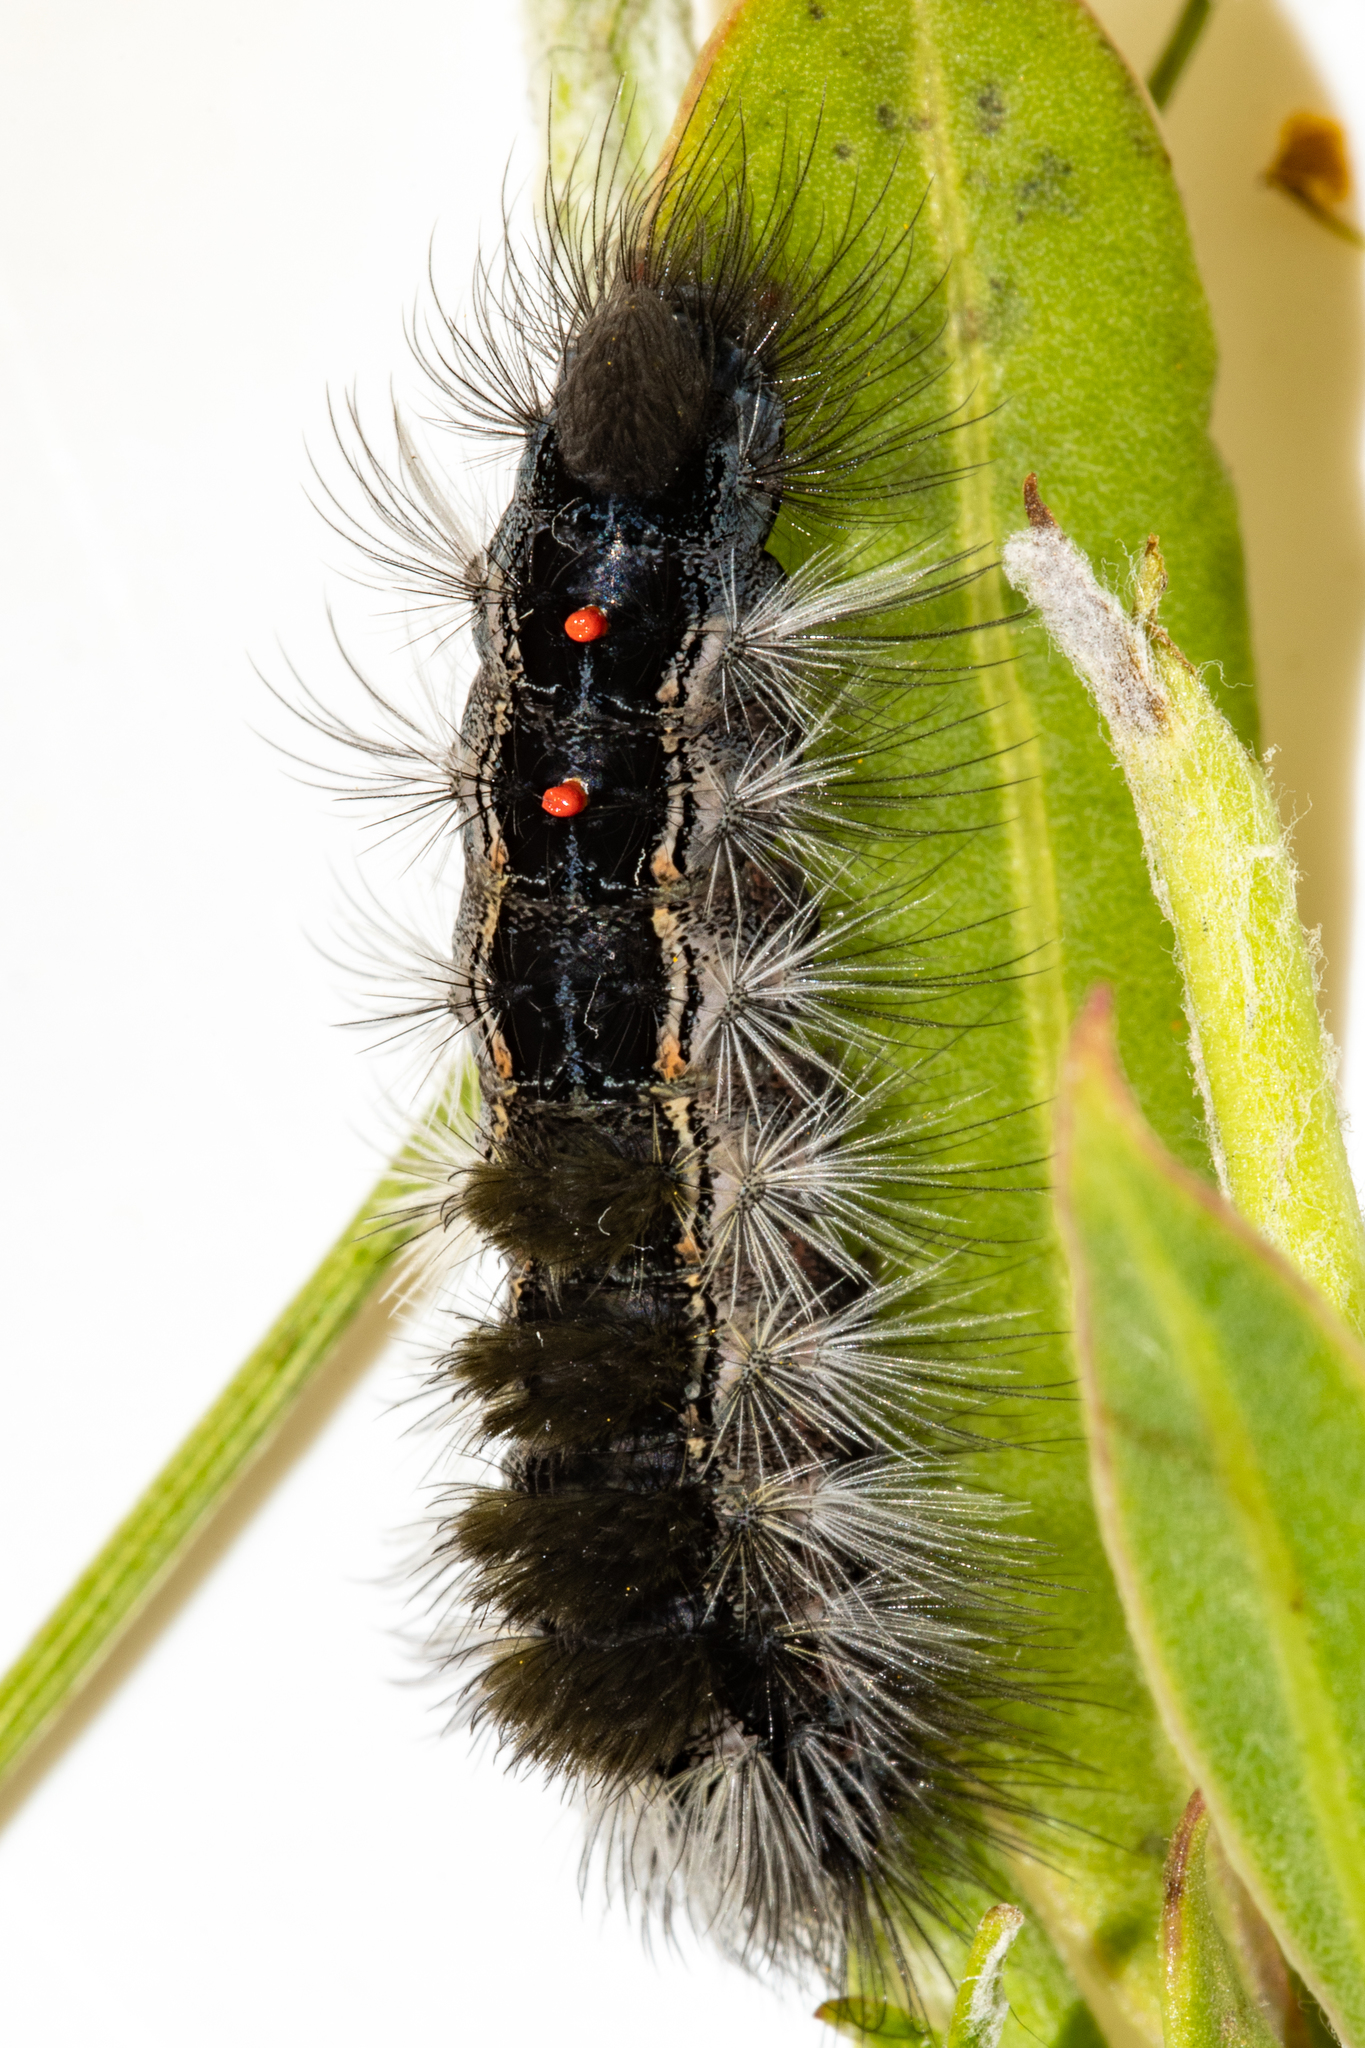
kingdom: Animalia
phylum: Arthropoda
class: Insecta
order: Lepidoptera
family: Erebidae
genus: Bracharoa
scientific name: Bracharoa dregei
